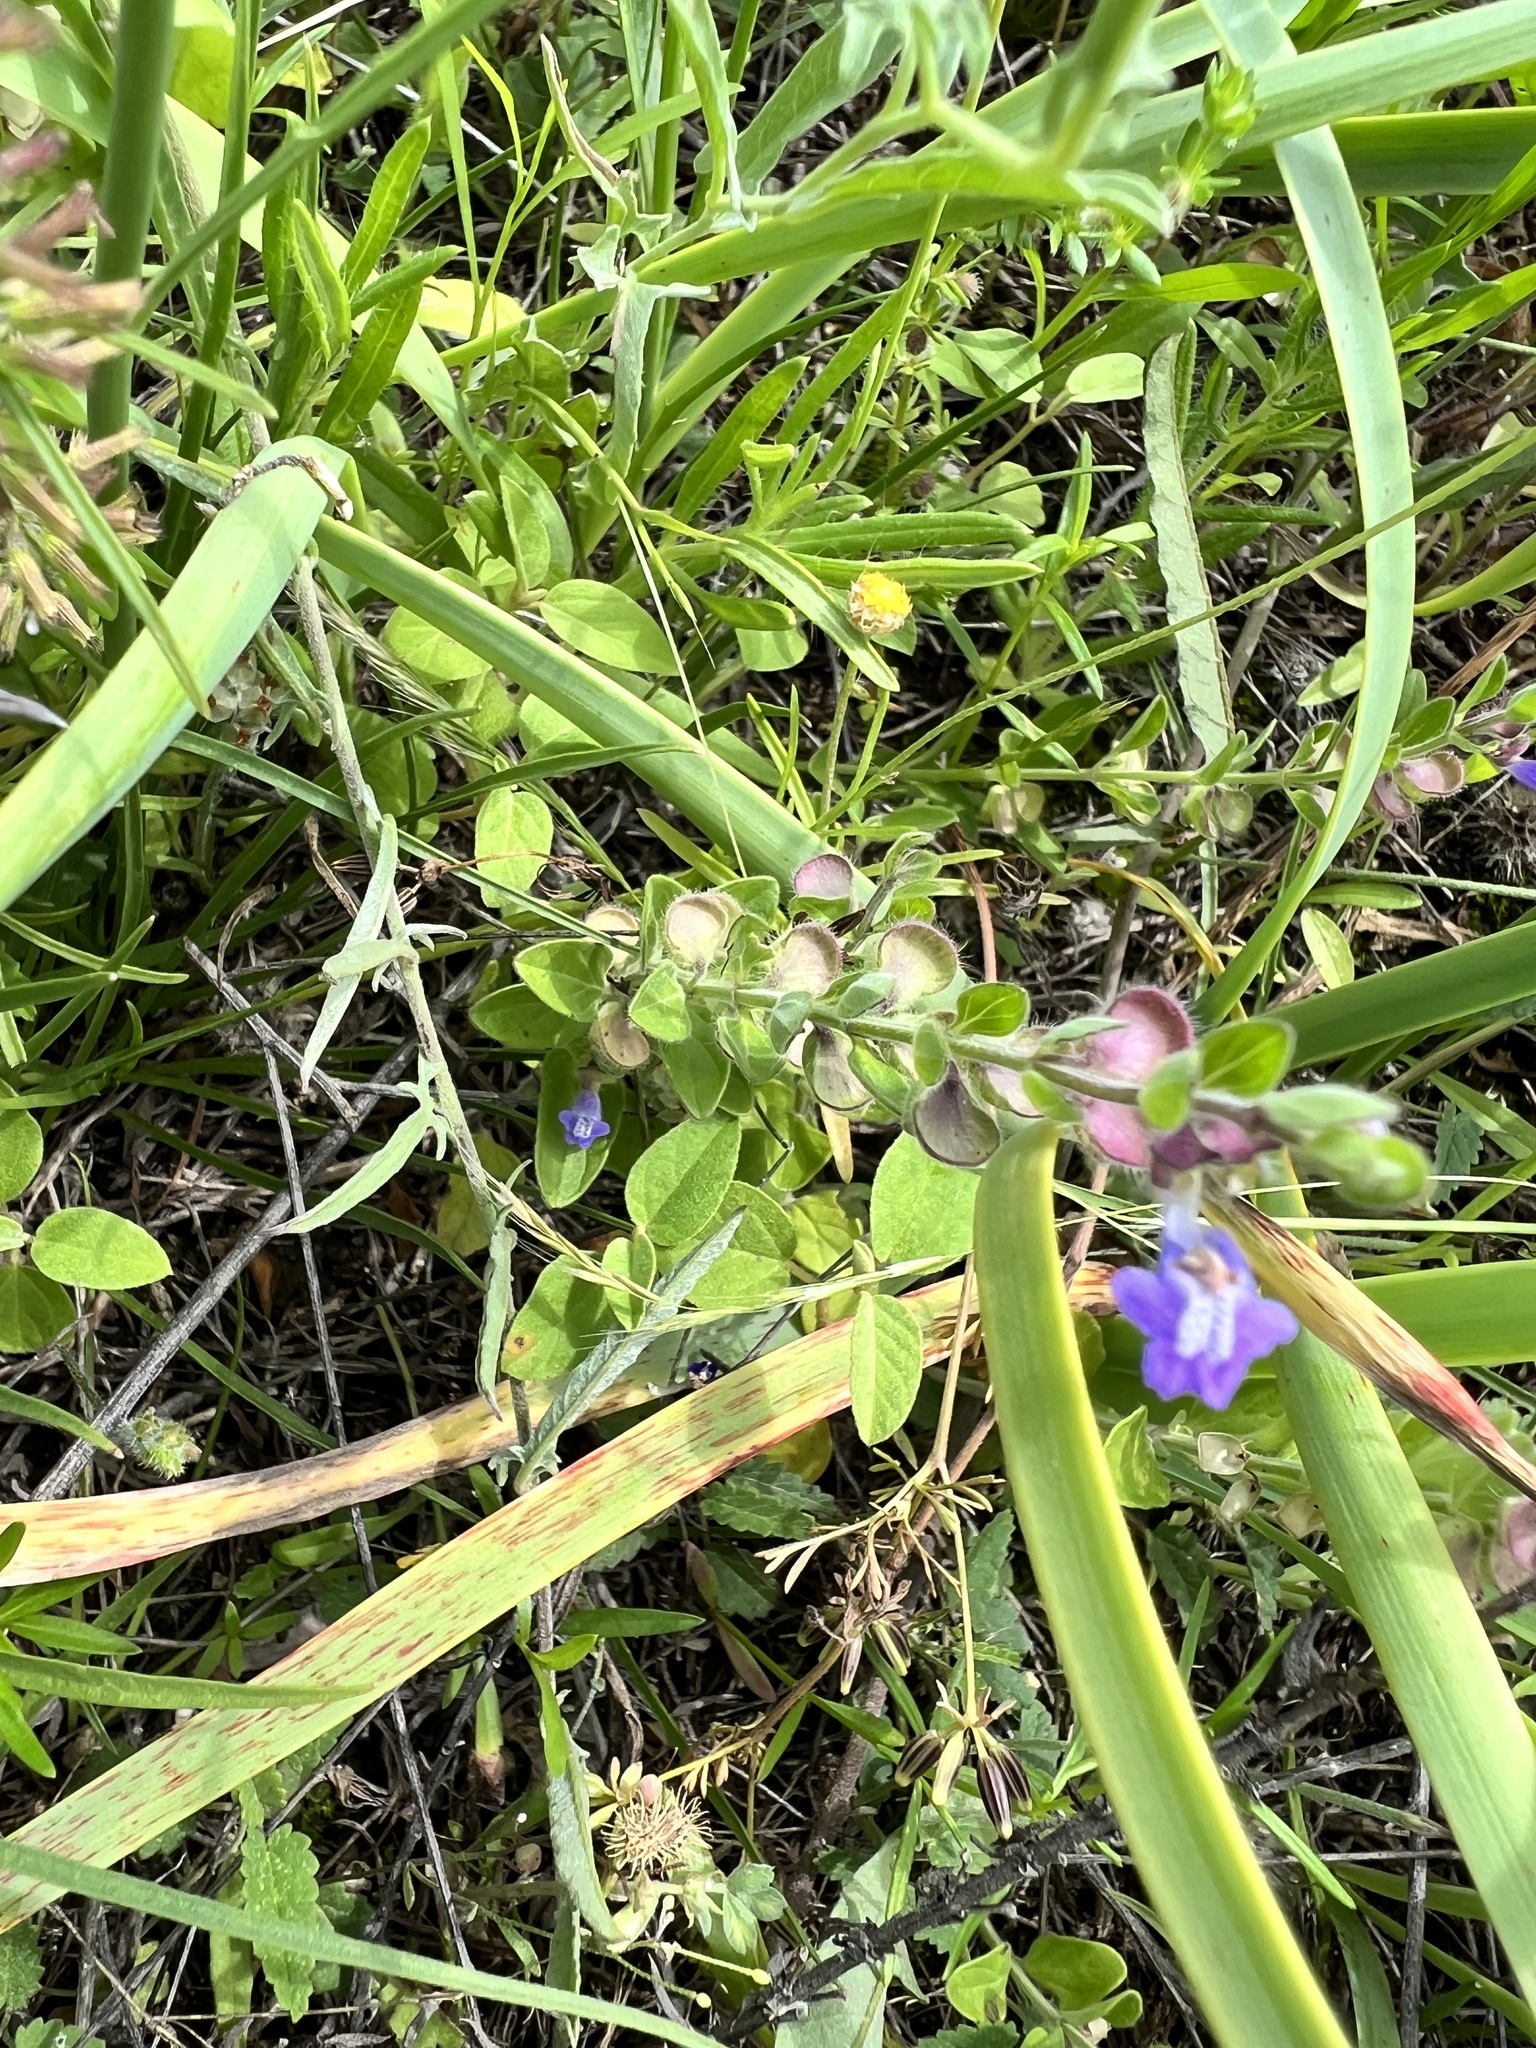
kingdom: Plantae
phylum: Tracheophyta
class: Magnoliopsida
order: Lamiales
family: Lamiaceae
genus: Scutellaria
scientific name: Scutellaria drummondii
